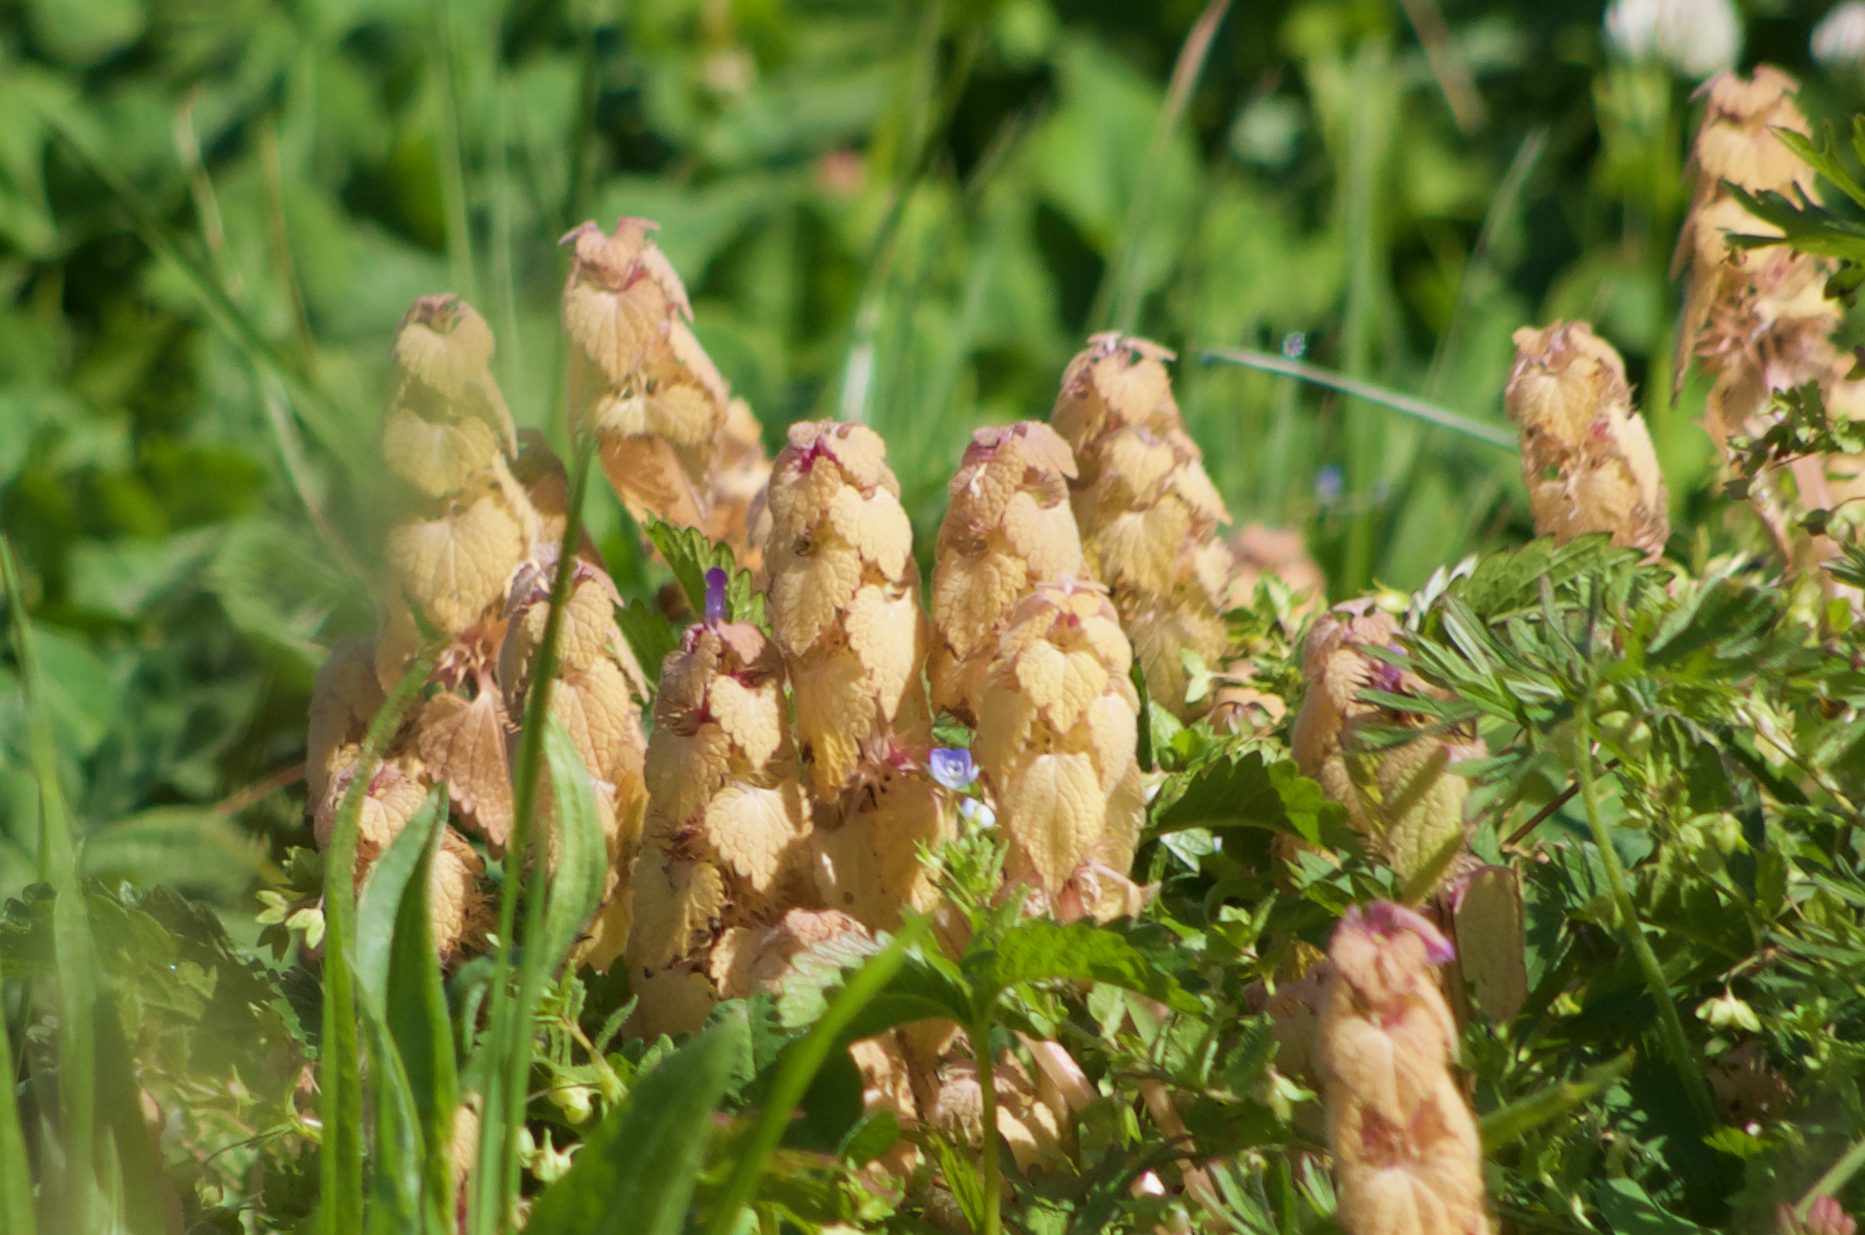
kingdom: Plantae
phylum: Tracheophyta
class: Magnoliopsida
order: Lamiales
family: Lamiaceae
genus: Lamium
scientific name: Lamium purpureum
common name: Red dead-nettle
